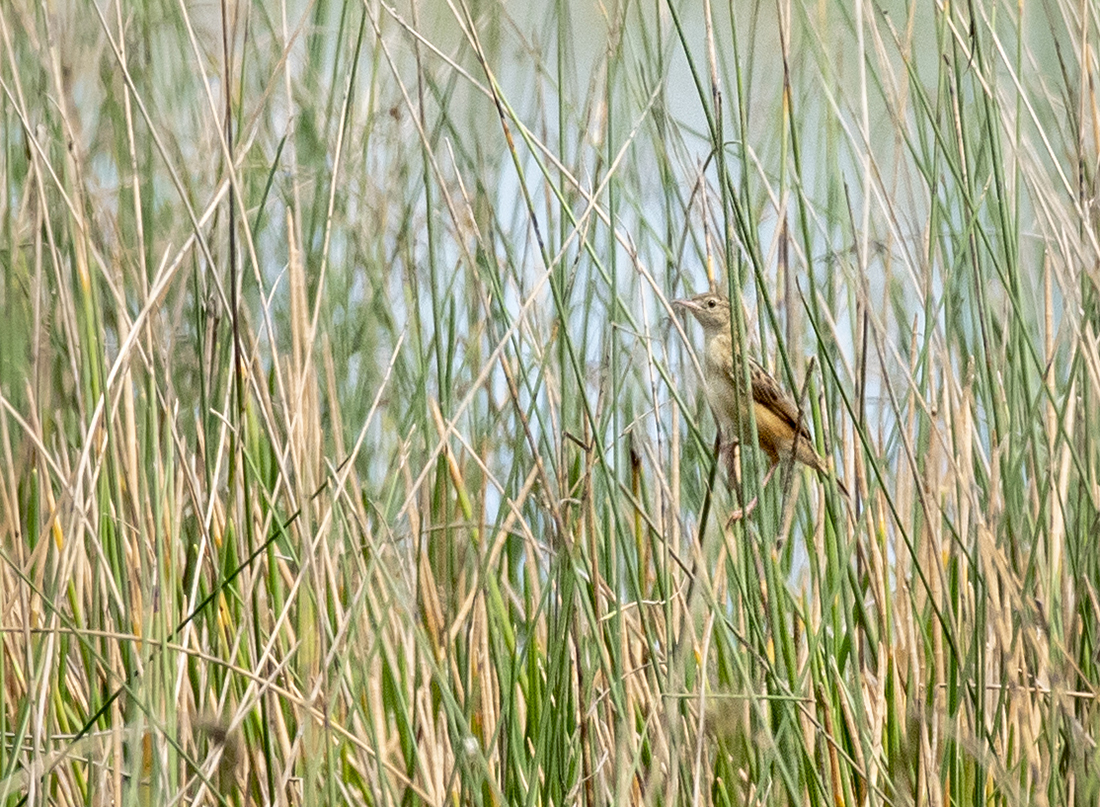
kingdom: Animalia
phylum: Chordata
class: Aves
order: Passeriformes
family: Cisticolidae
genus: Cisticola
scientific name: Cisticola juncidis
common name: Zitting cisticola
